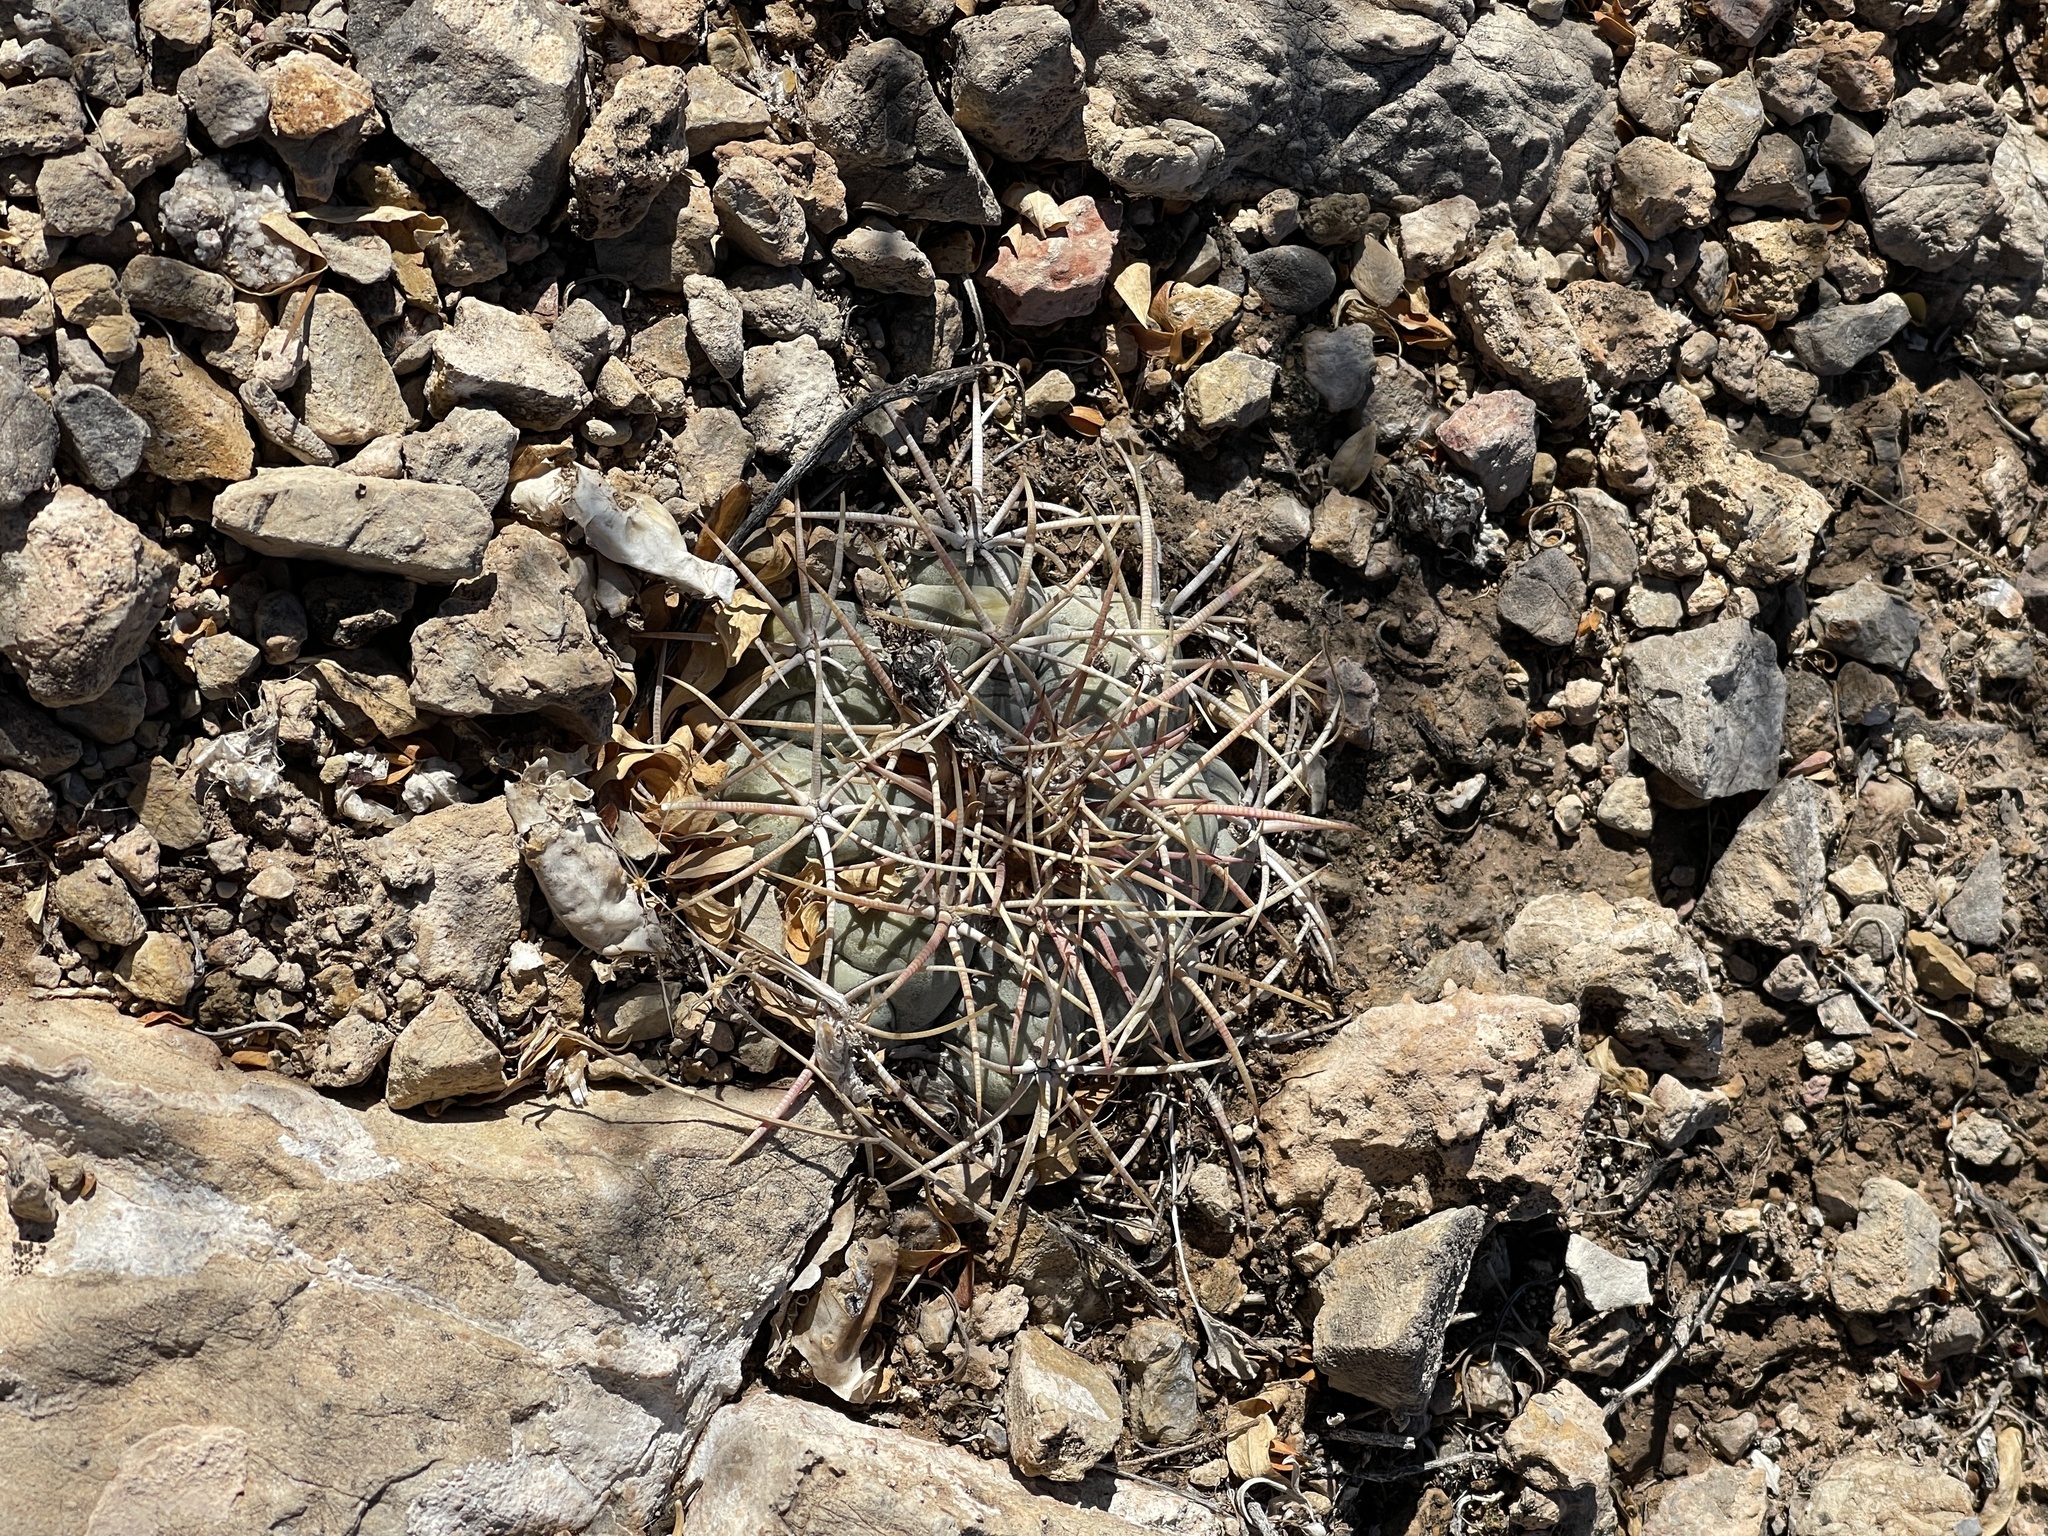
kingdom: Plantae
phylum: Tracheophyta
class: Magnoliopsida
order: Caryophyllales
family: Cactaceae
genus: Echinocactus
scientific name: Echinocactus horizonthalonius
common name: Devilshead
